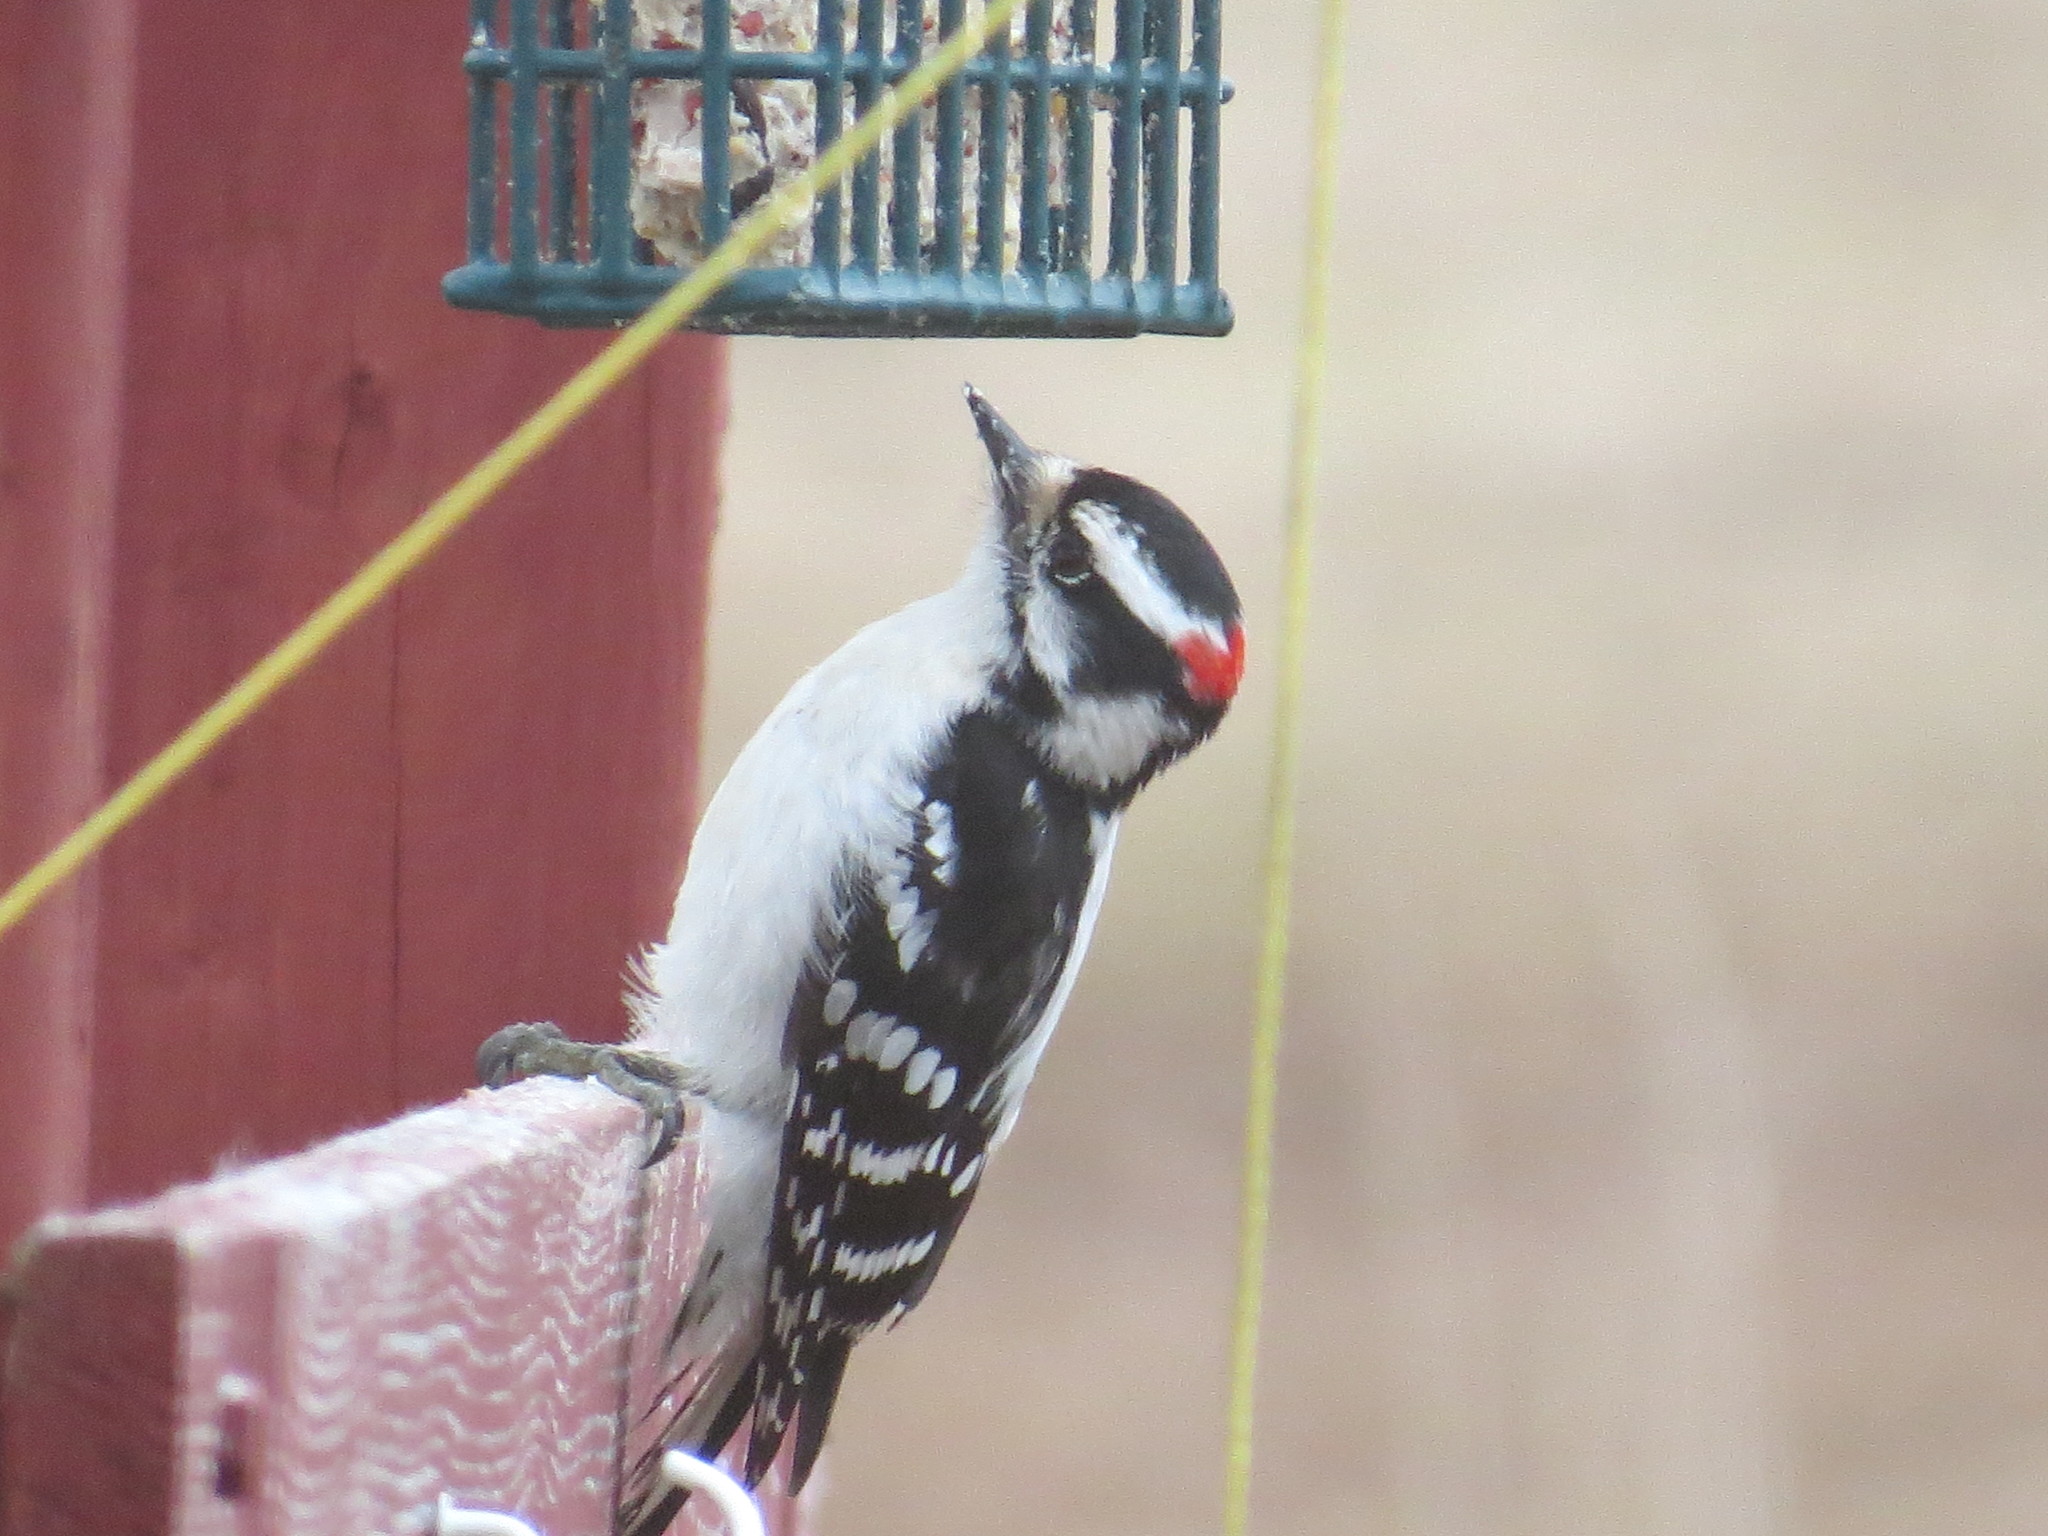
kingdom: Animalia
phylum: Chordata
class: Aves
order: Piciformes
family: Picidae
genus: Dryobates
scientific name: Dryobates pubescens
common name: Downy woodpecker
